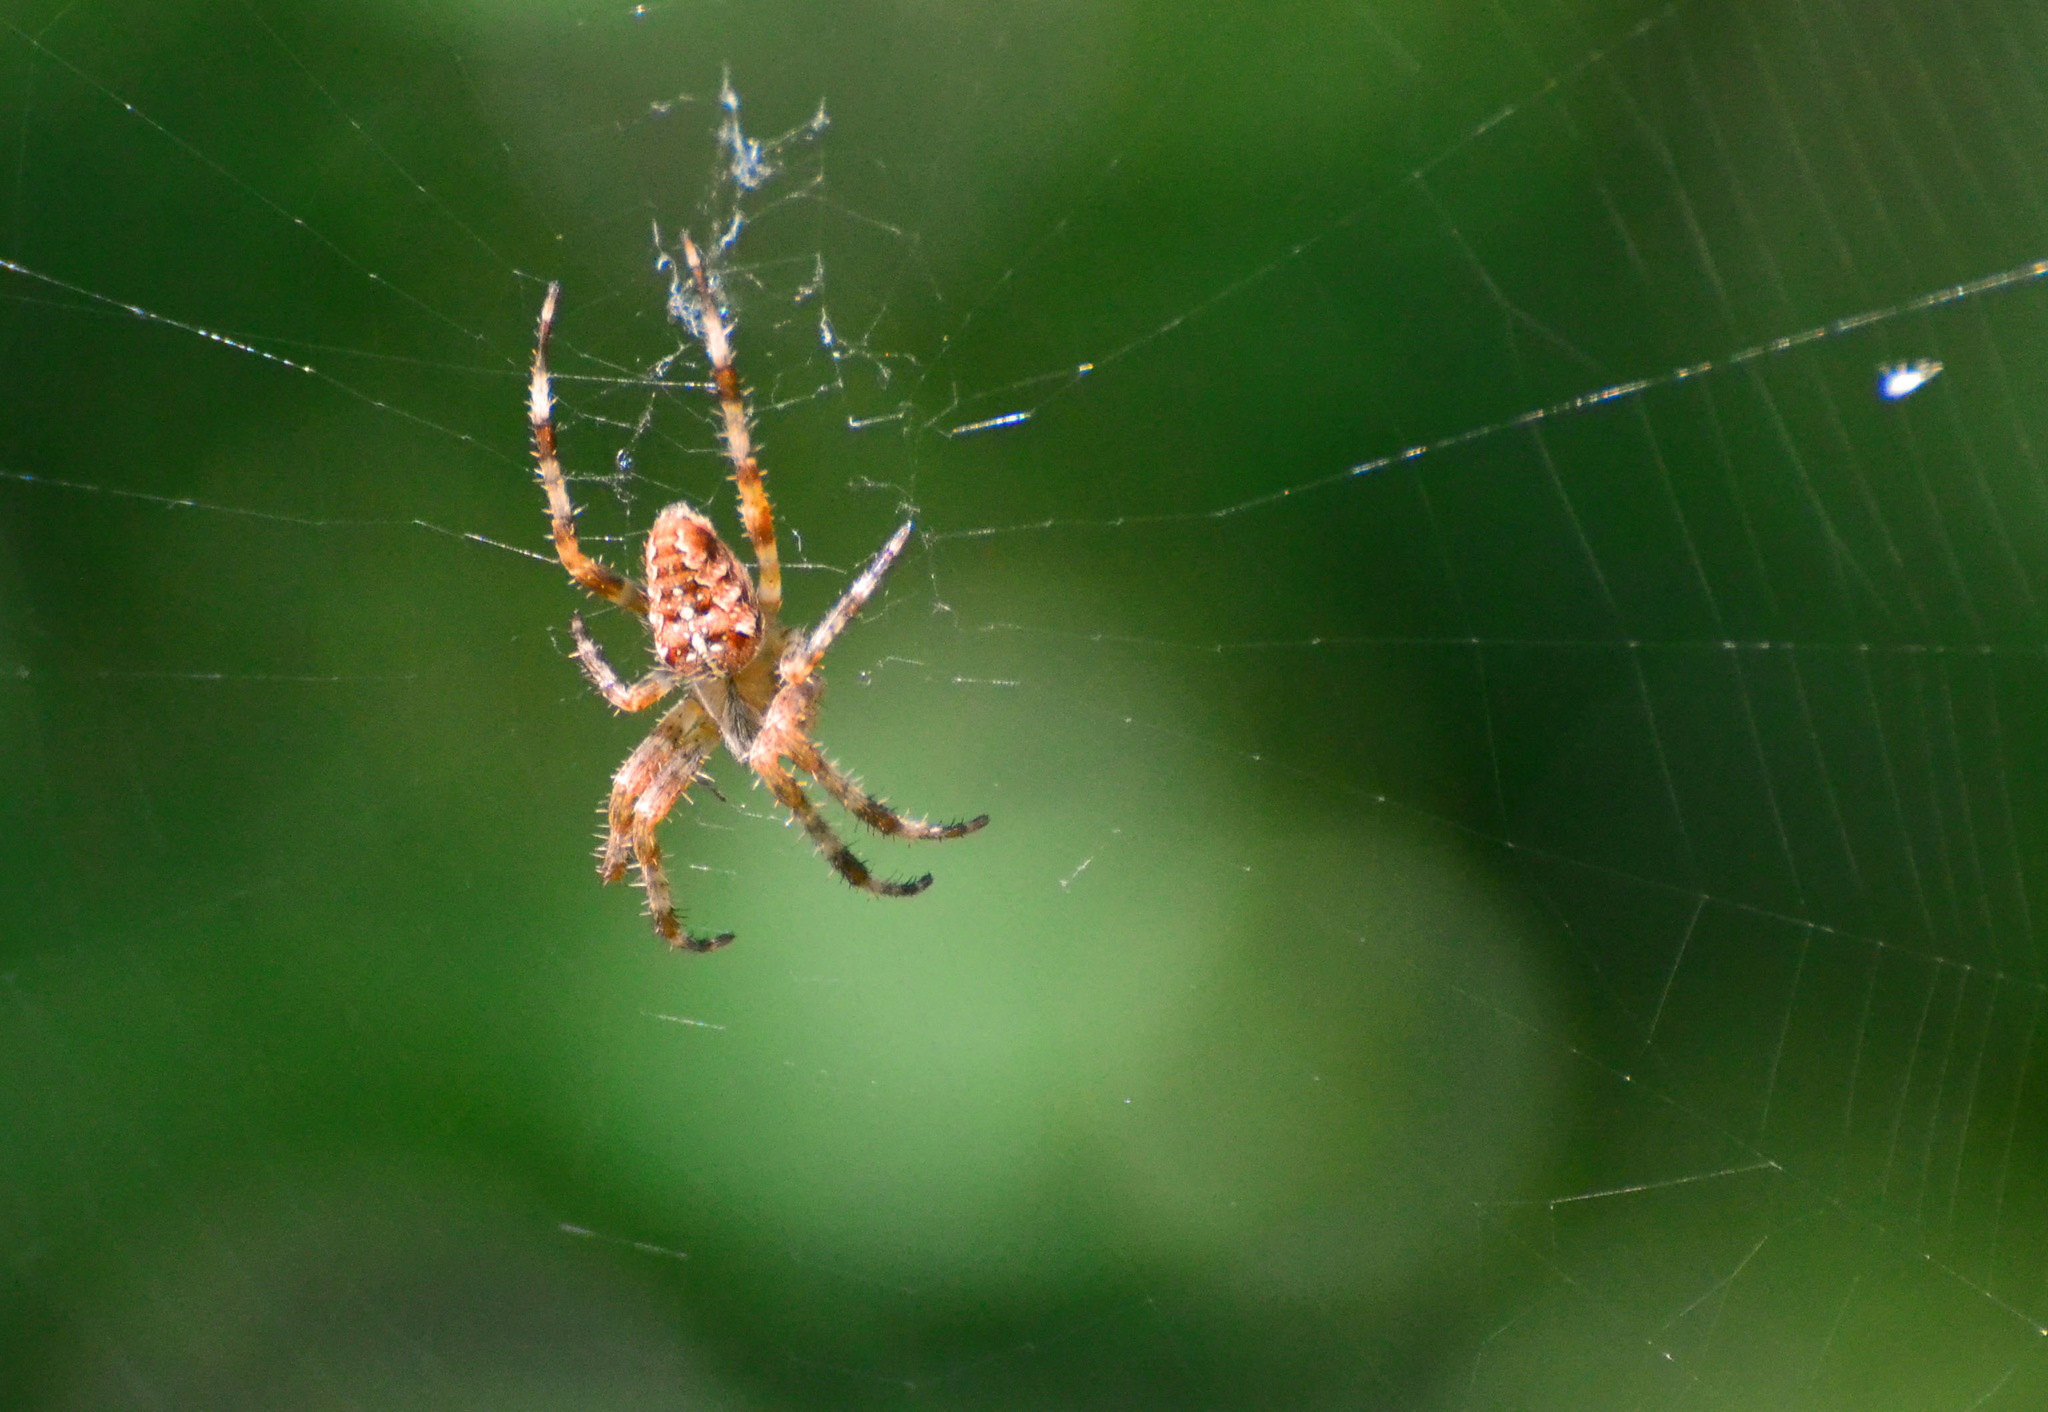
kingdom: Animalia
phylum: Arthropoda
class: Arachnida
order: Araneae
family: Araneidae
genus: Araneus
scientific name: Araneus diadematus
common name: Cross orbweaver
